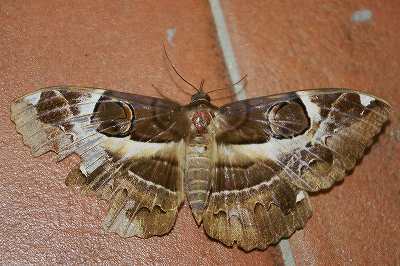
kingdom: Animalia
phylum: Arthropoda
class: Insecta
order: Lepidoptera
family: Erebidae
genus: Erebus
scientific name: Erebus ephesperis
